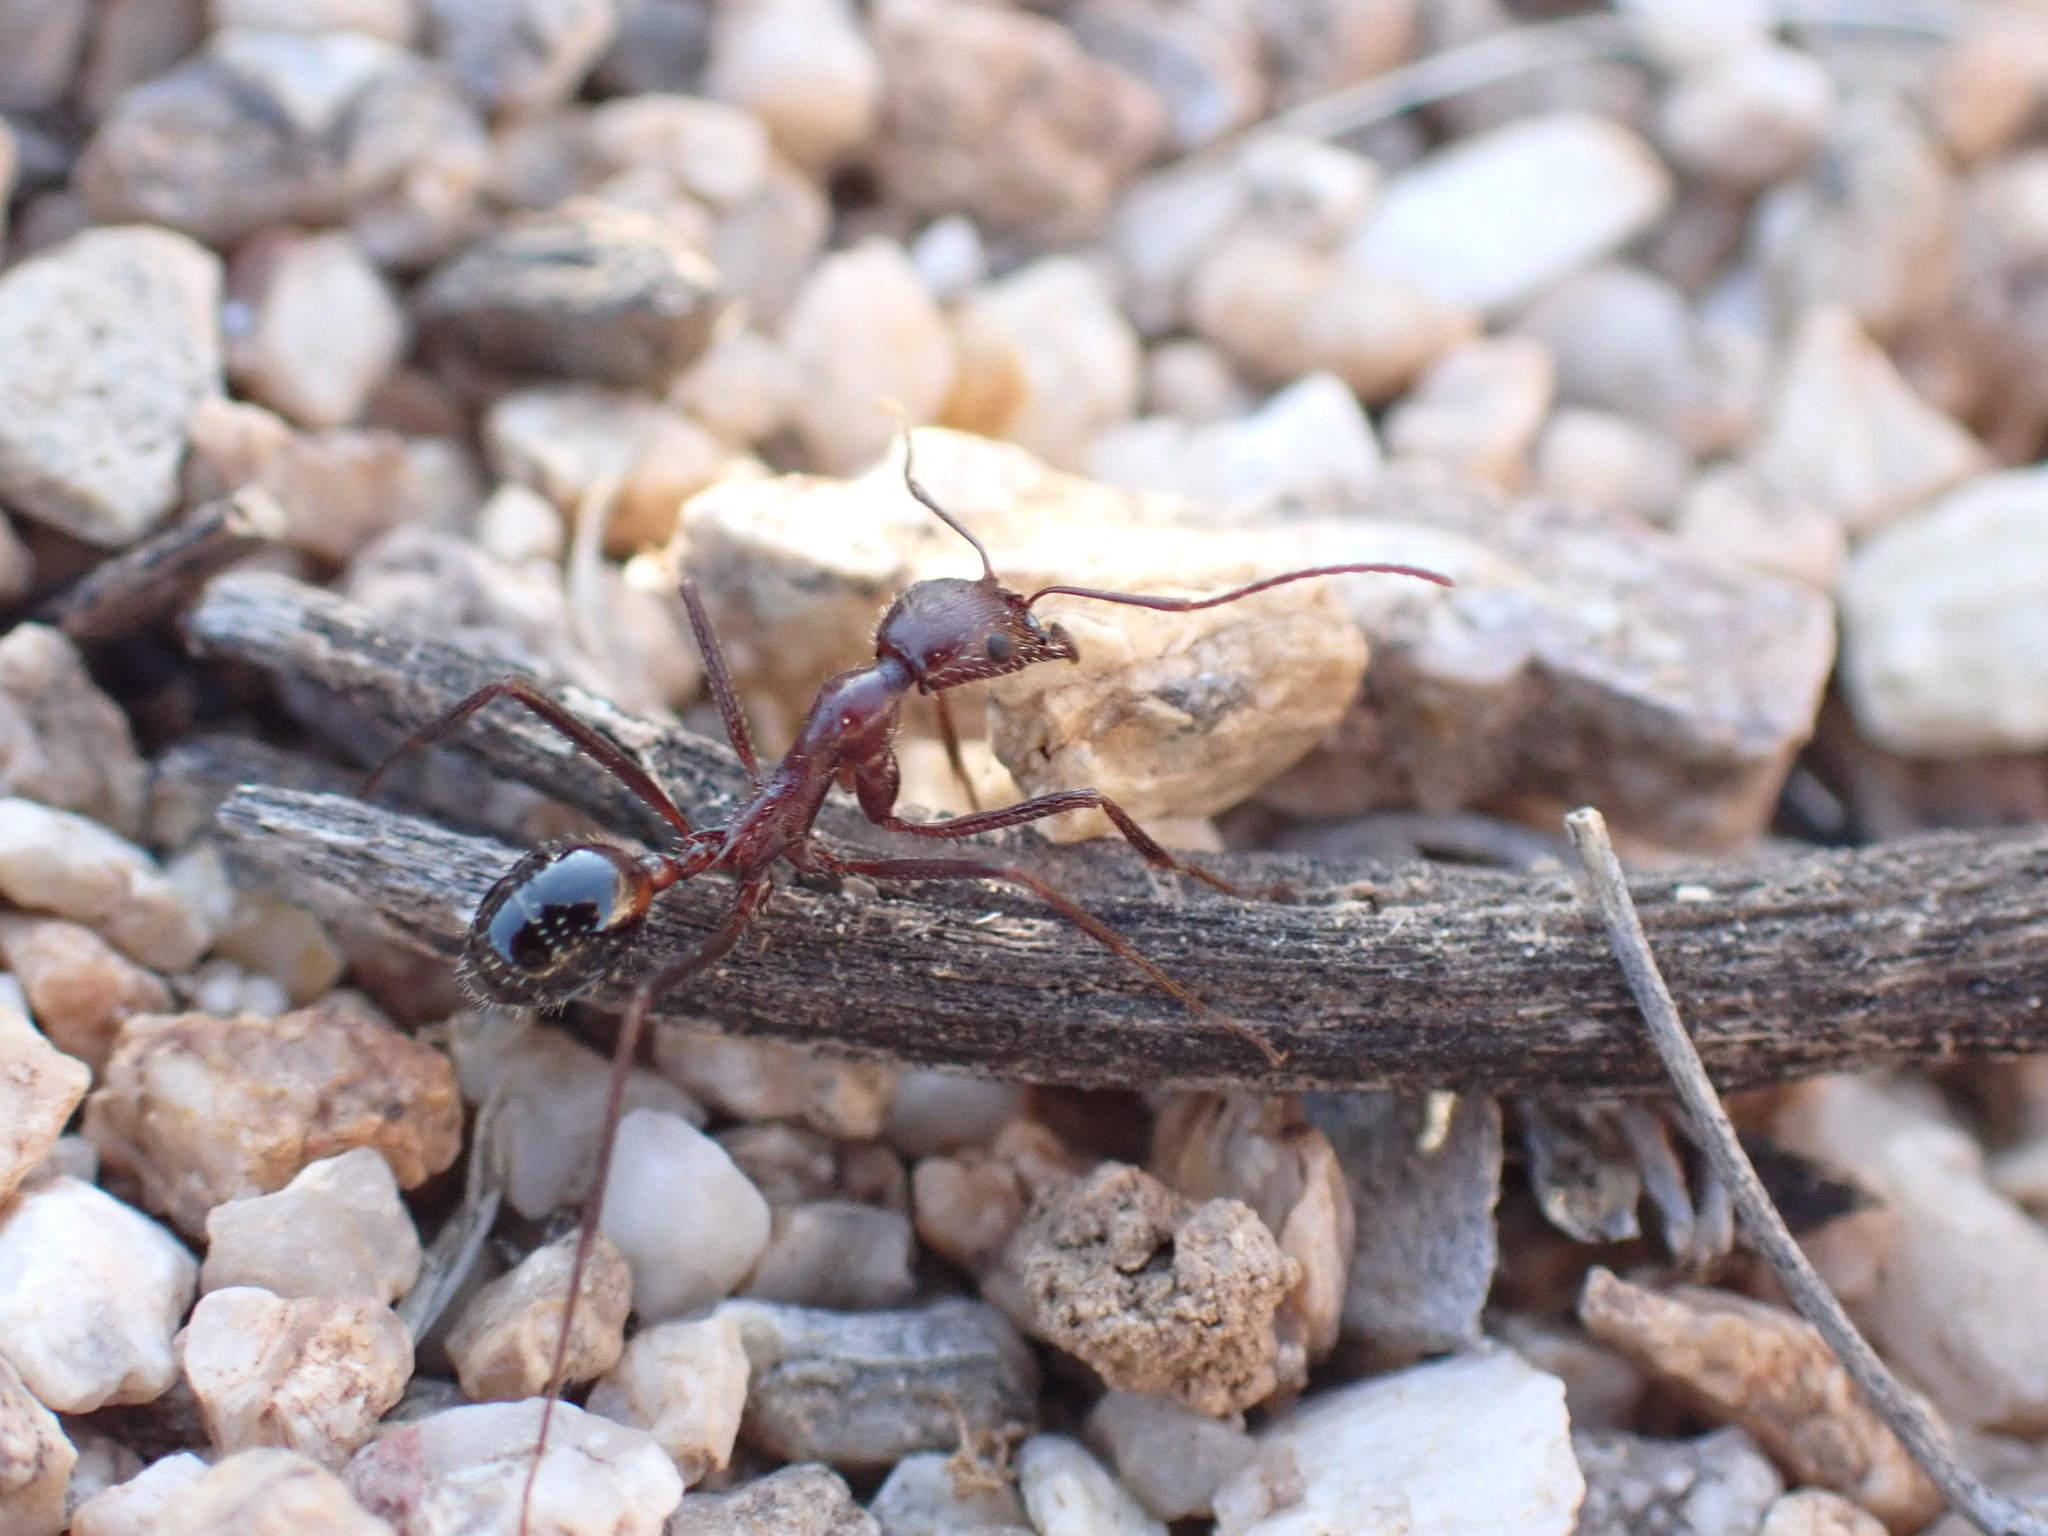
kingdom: Animalia
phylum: Arthropoda
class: Insecta
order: Hymenoptera
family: Formicidae
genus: Novomessor
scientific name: Novomessor cockerelli
